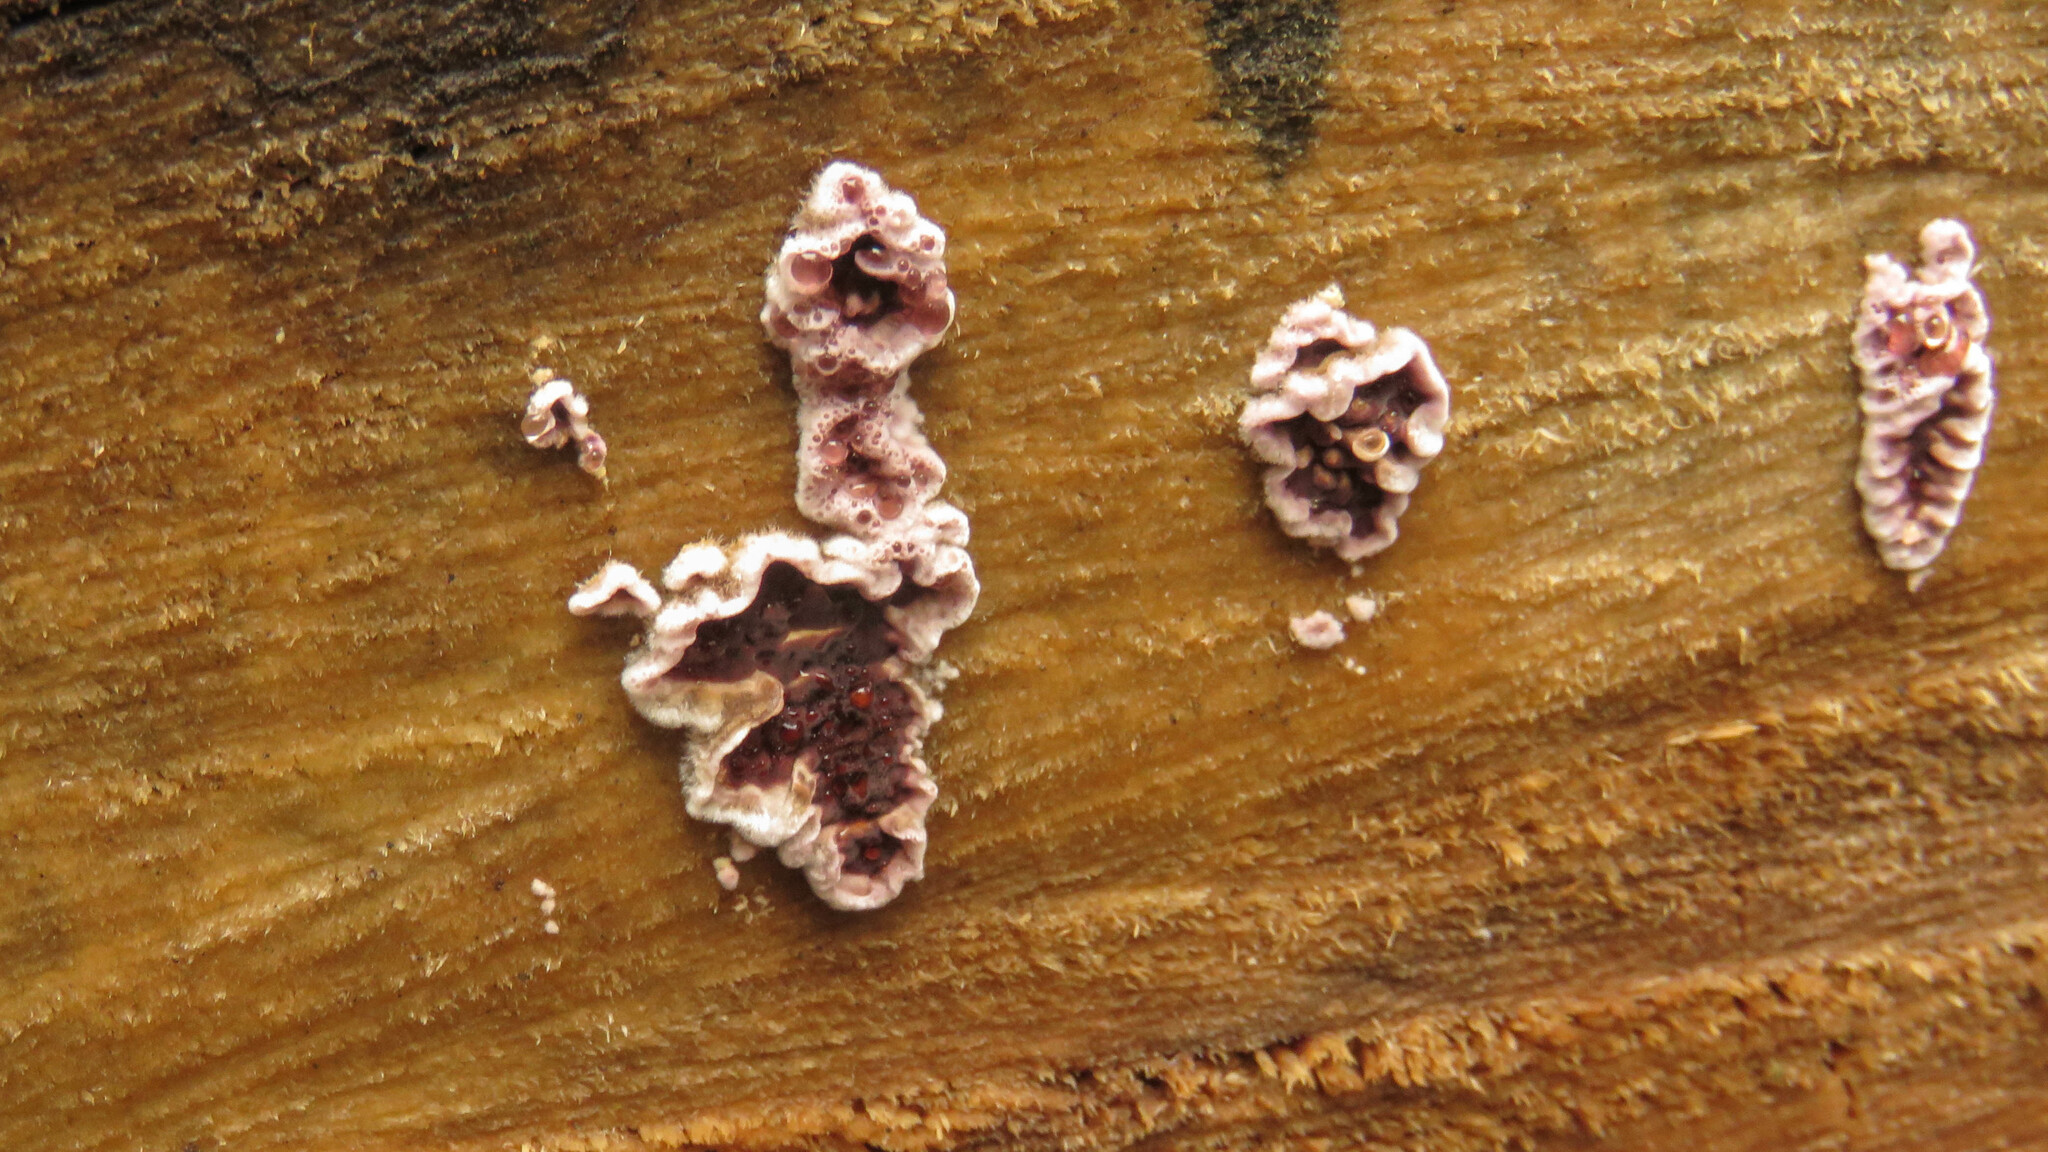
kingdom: Fungi
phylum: Basidiomycota
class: Agaricomycetes
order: Agaricales
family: Cyphellaceae
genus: Chondrostereum
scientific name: Chondrostereum purpureum
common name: Silver leaf disease
